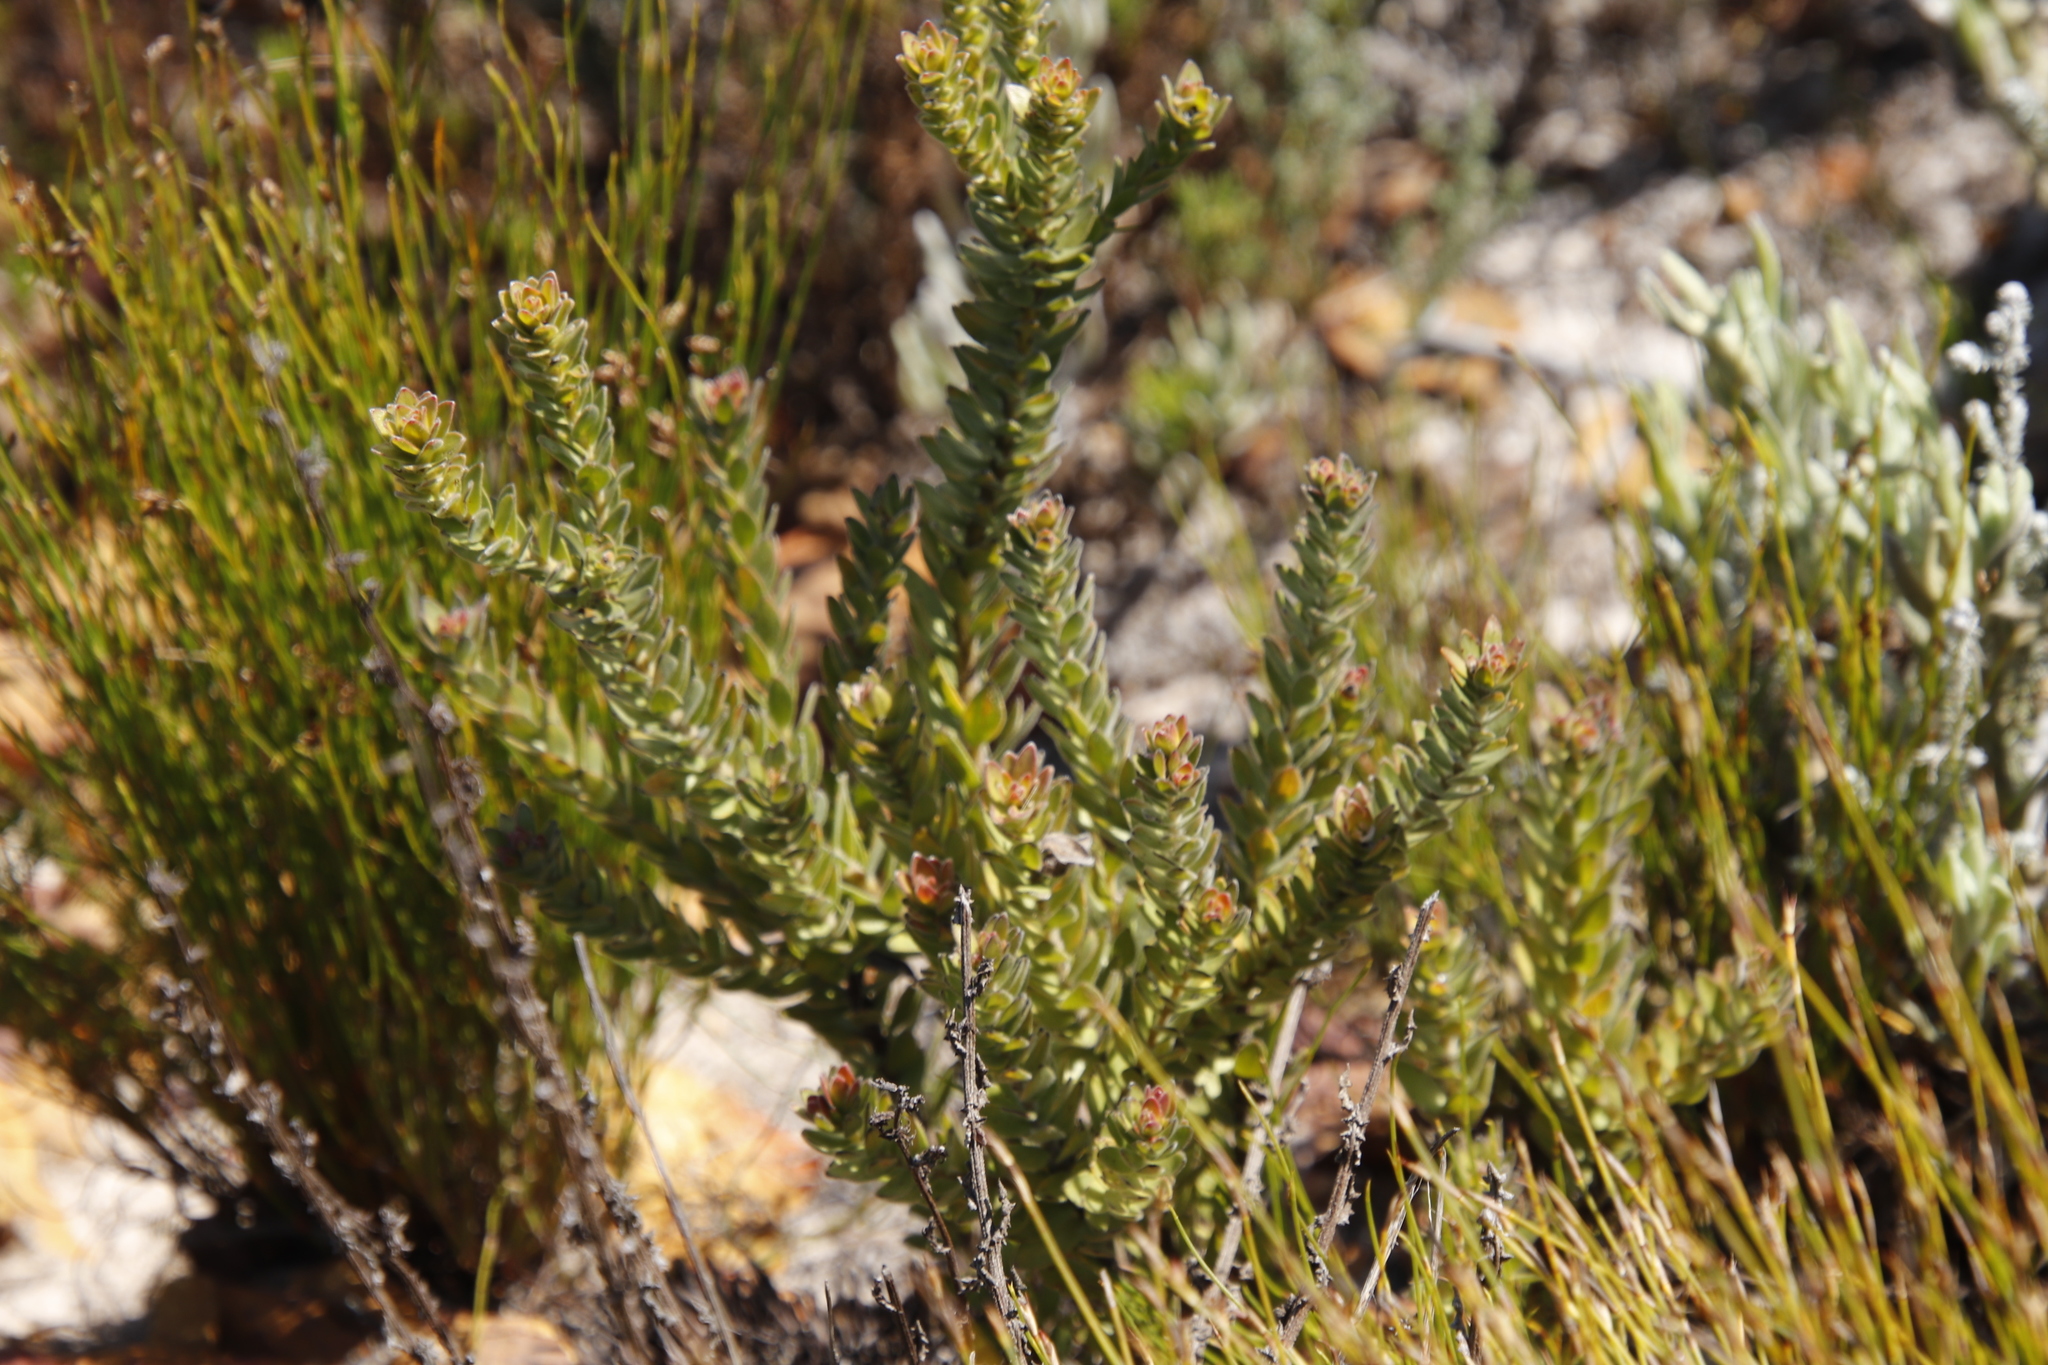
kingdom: Plantae
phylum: Tracheophyta
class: Magnoliopsida
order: Proteales
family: Proteaceae
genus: Diastella
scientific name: Diastella thymelaeoides
